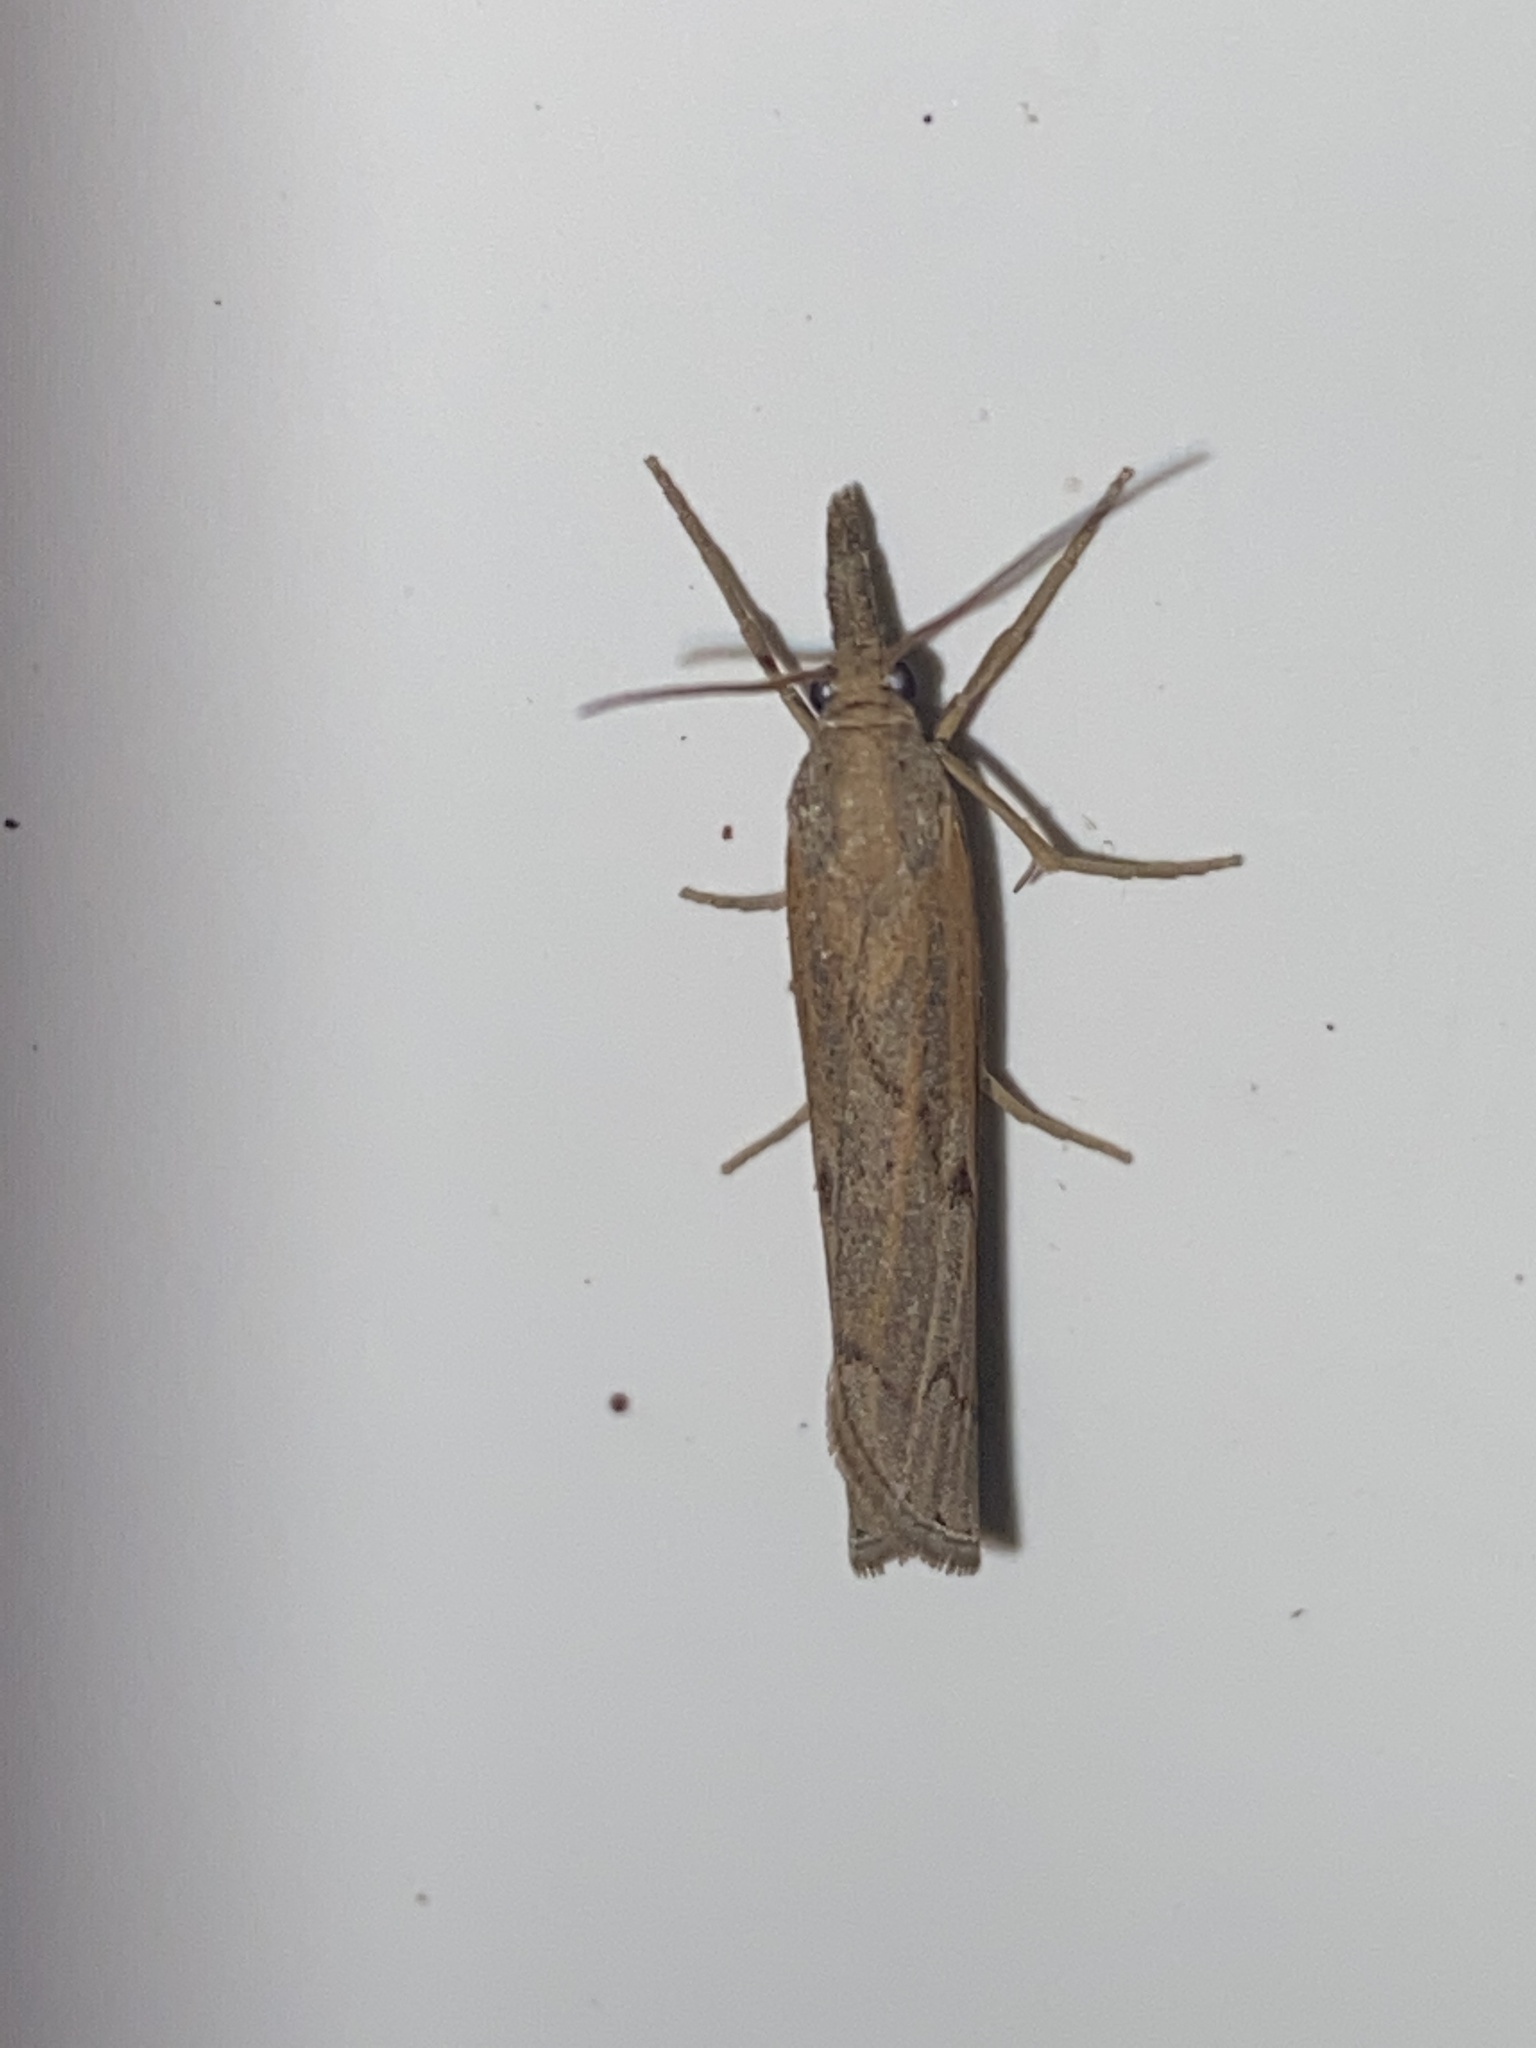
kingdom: Animalia
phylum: Arthropoda
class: Insecta
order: Lepidoptera
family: Crambidae
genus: Pediasia
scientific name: Pediasia contaminella
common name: Waste grass-veneer
